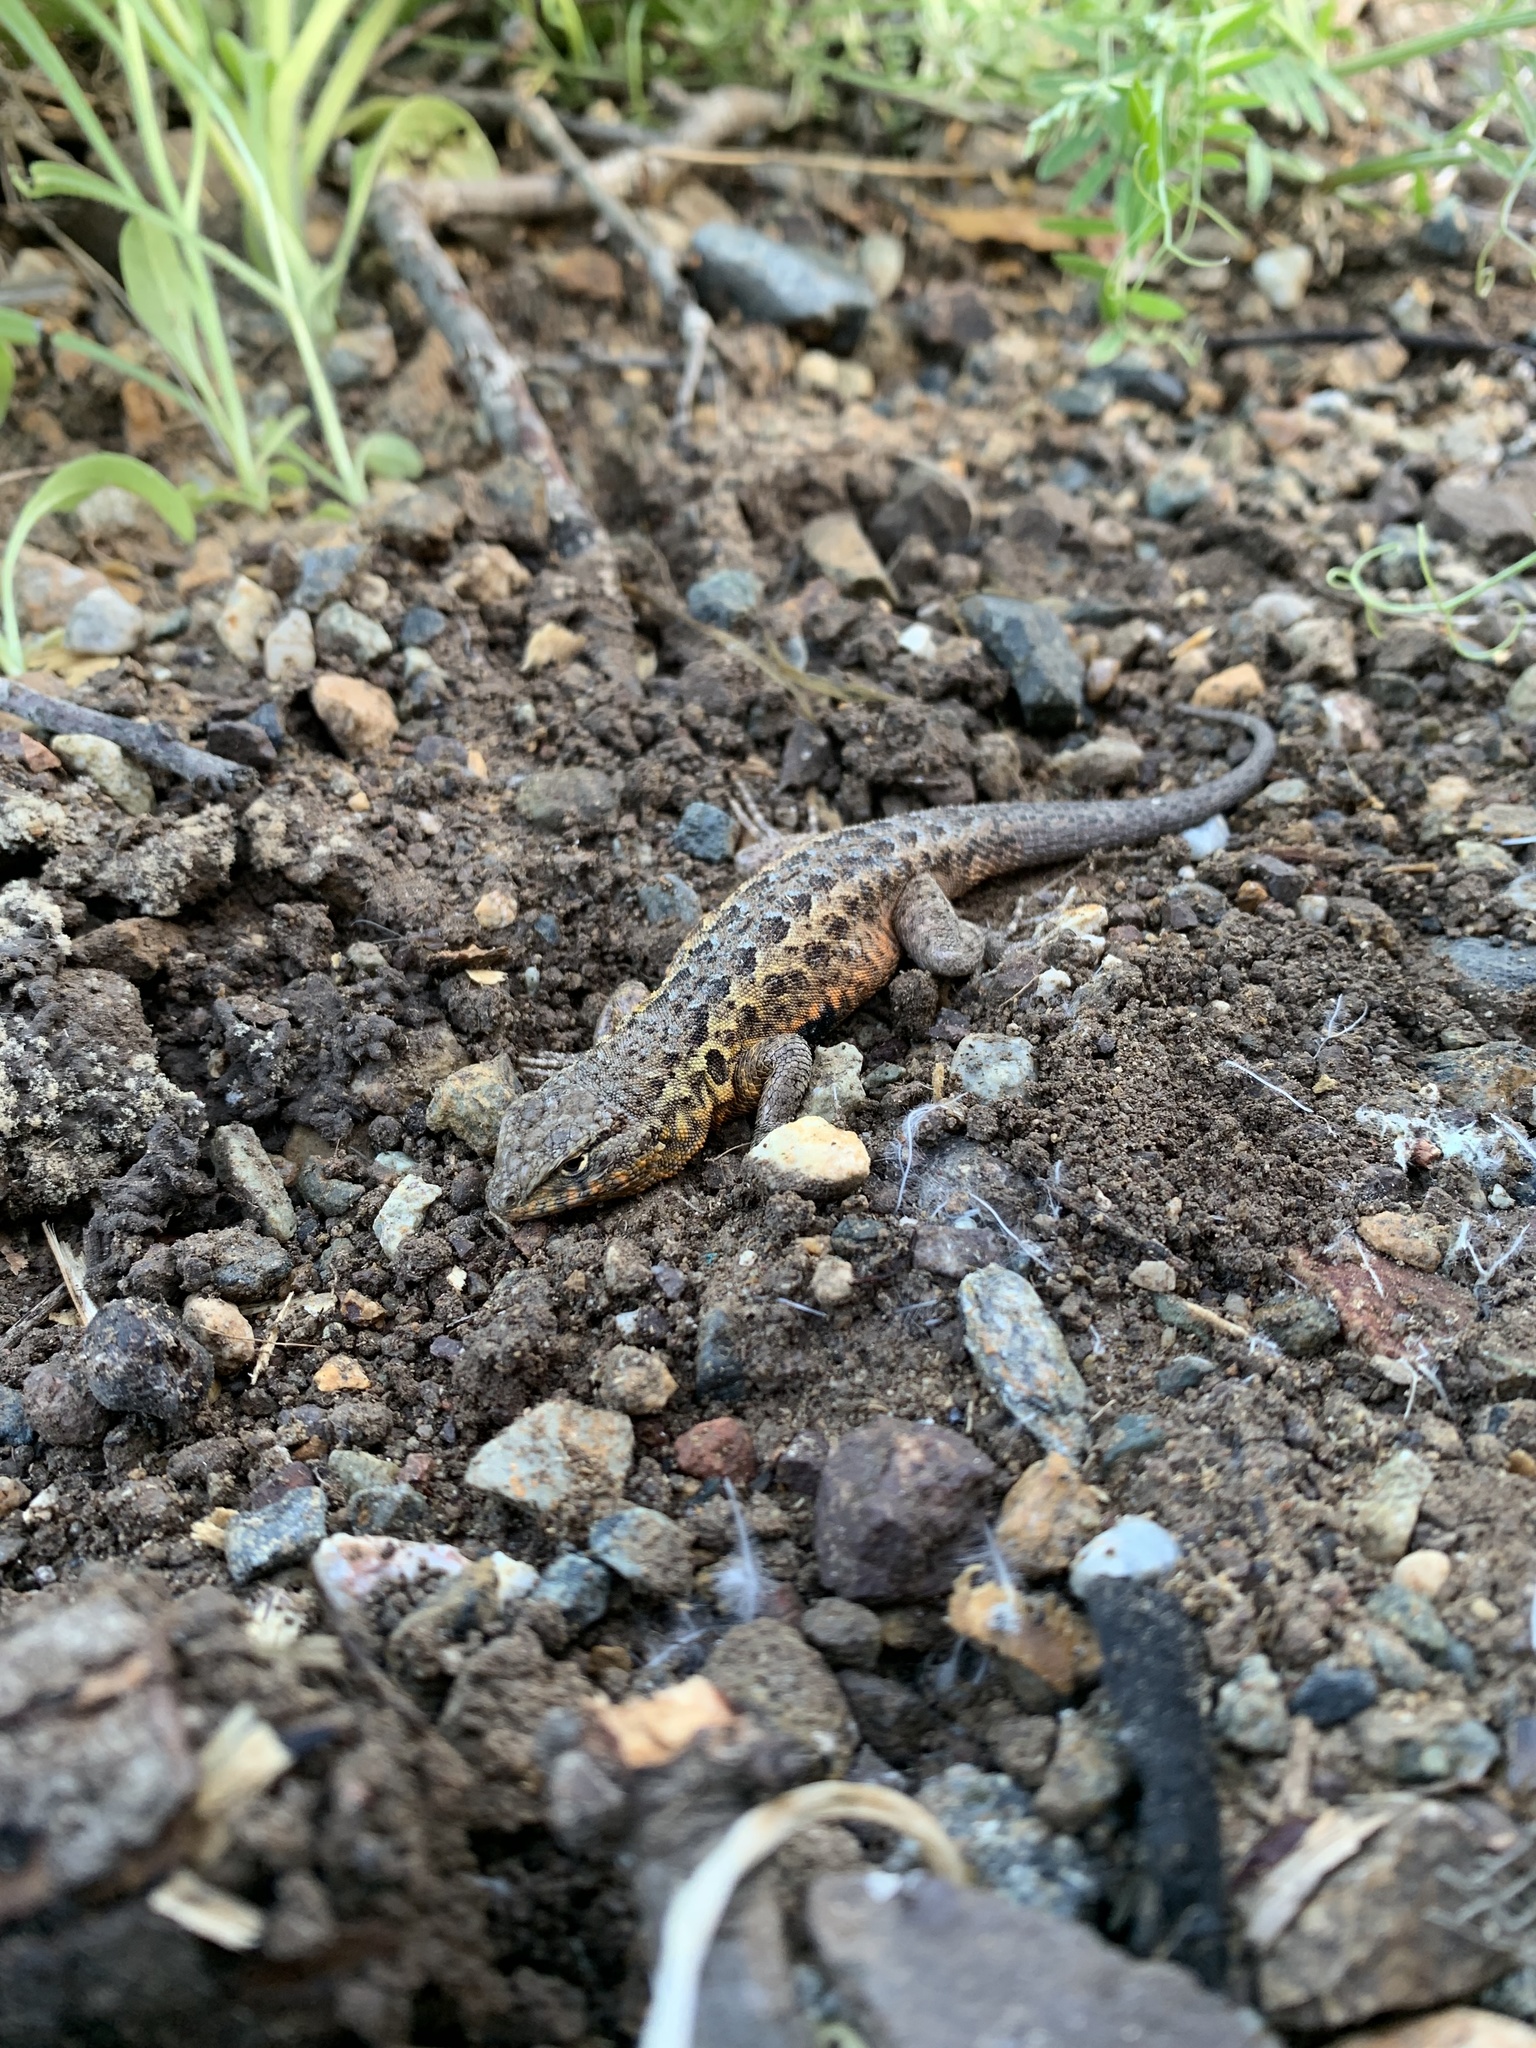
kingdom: Animalia
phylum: Chordata
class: Squamata
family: Phrynosomatidae
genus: Uta
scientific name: Uta stansburiana
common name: Side-blotched lizard
